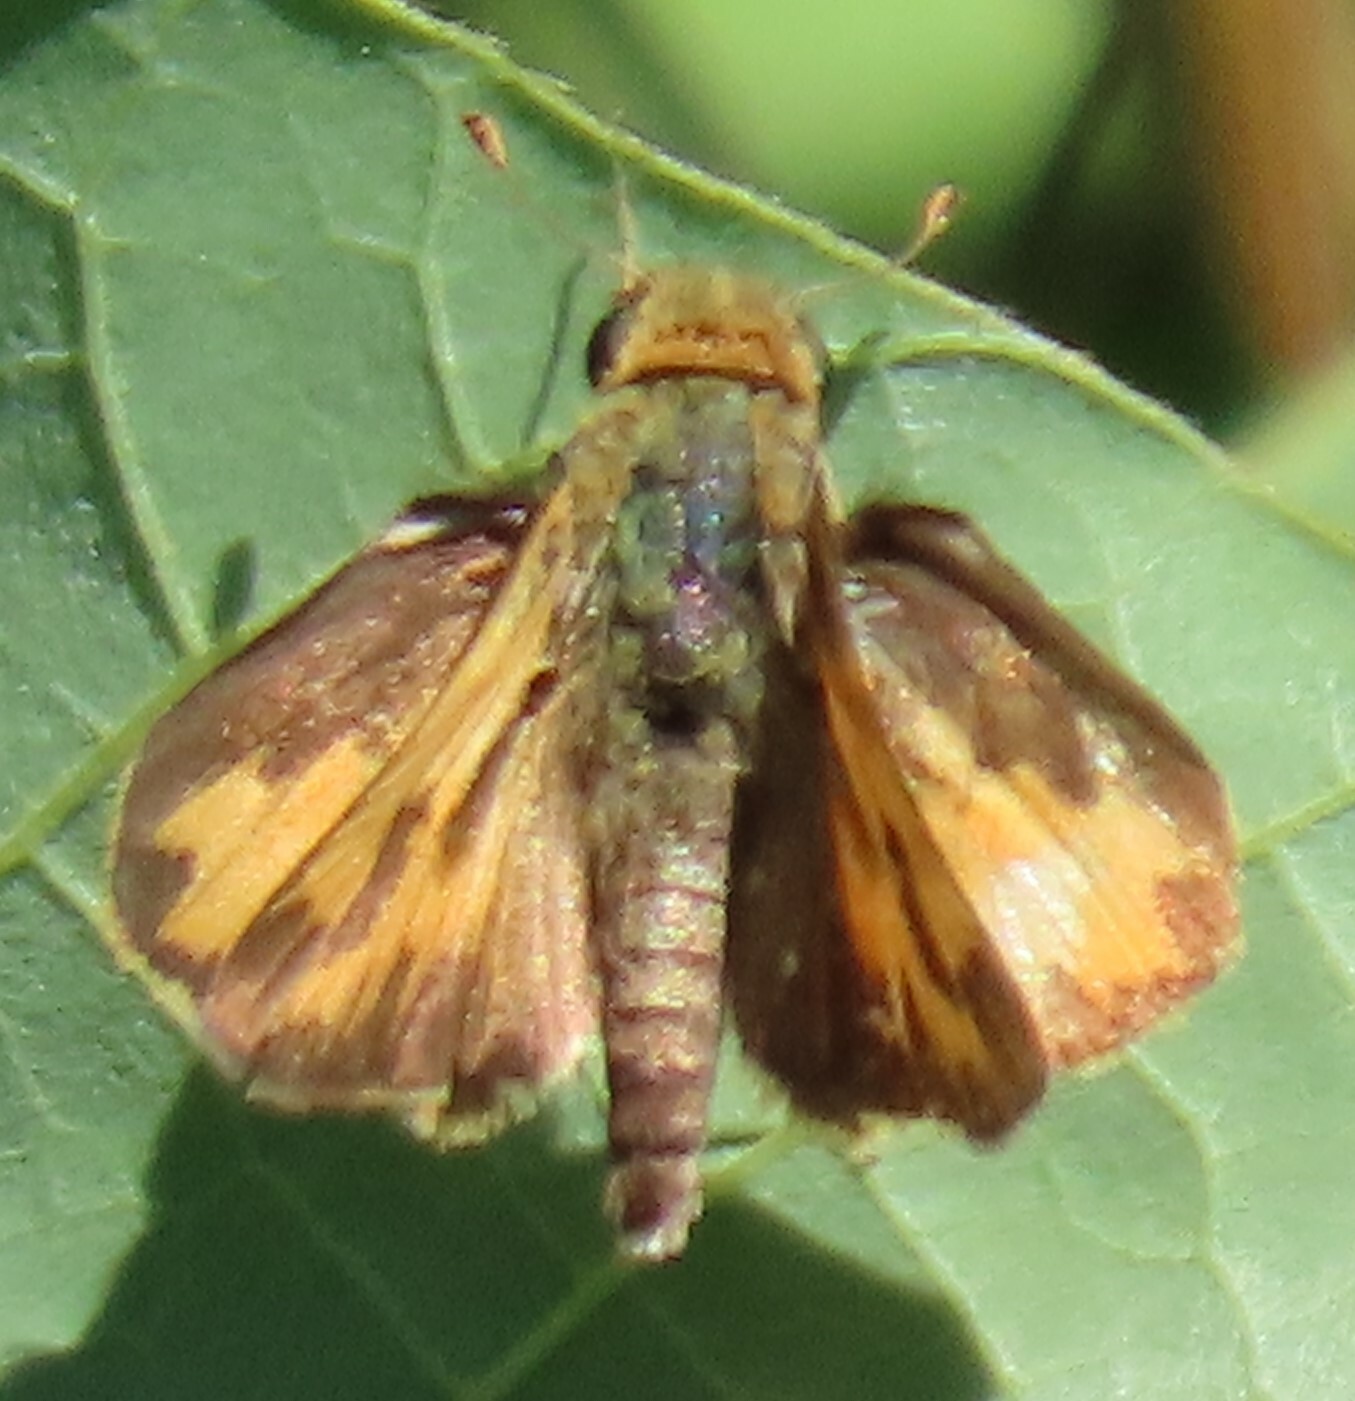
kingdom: Animalia
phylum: Arthropoda
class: Insecta
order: Lepidoptera
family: Hesperiidae
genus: Hylephila
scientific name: Hylephila phyleus
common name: Fiery skipper
